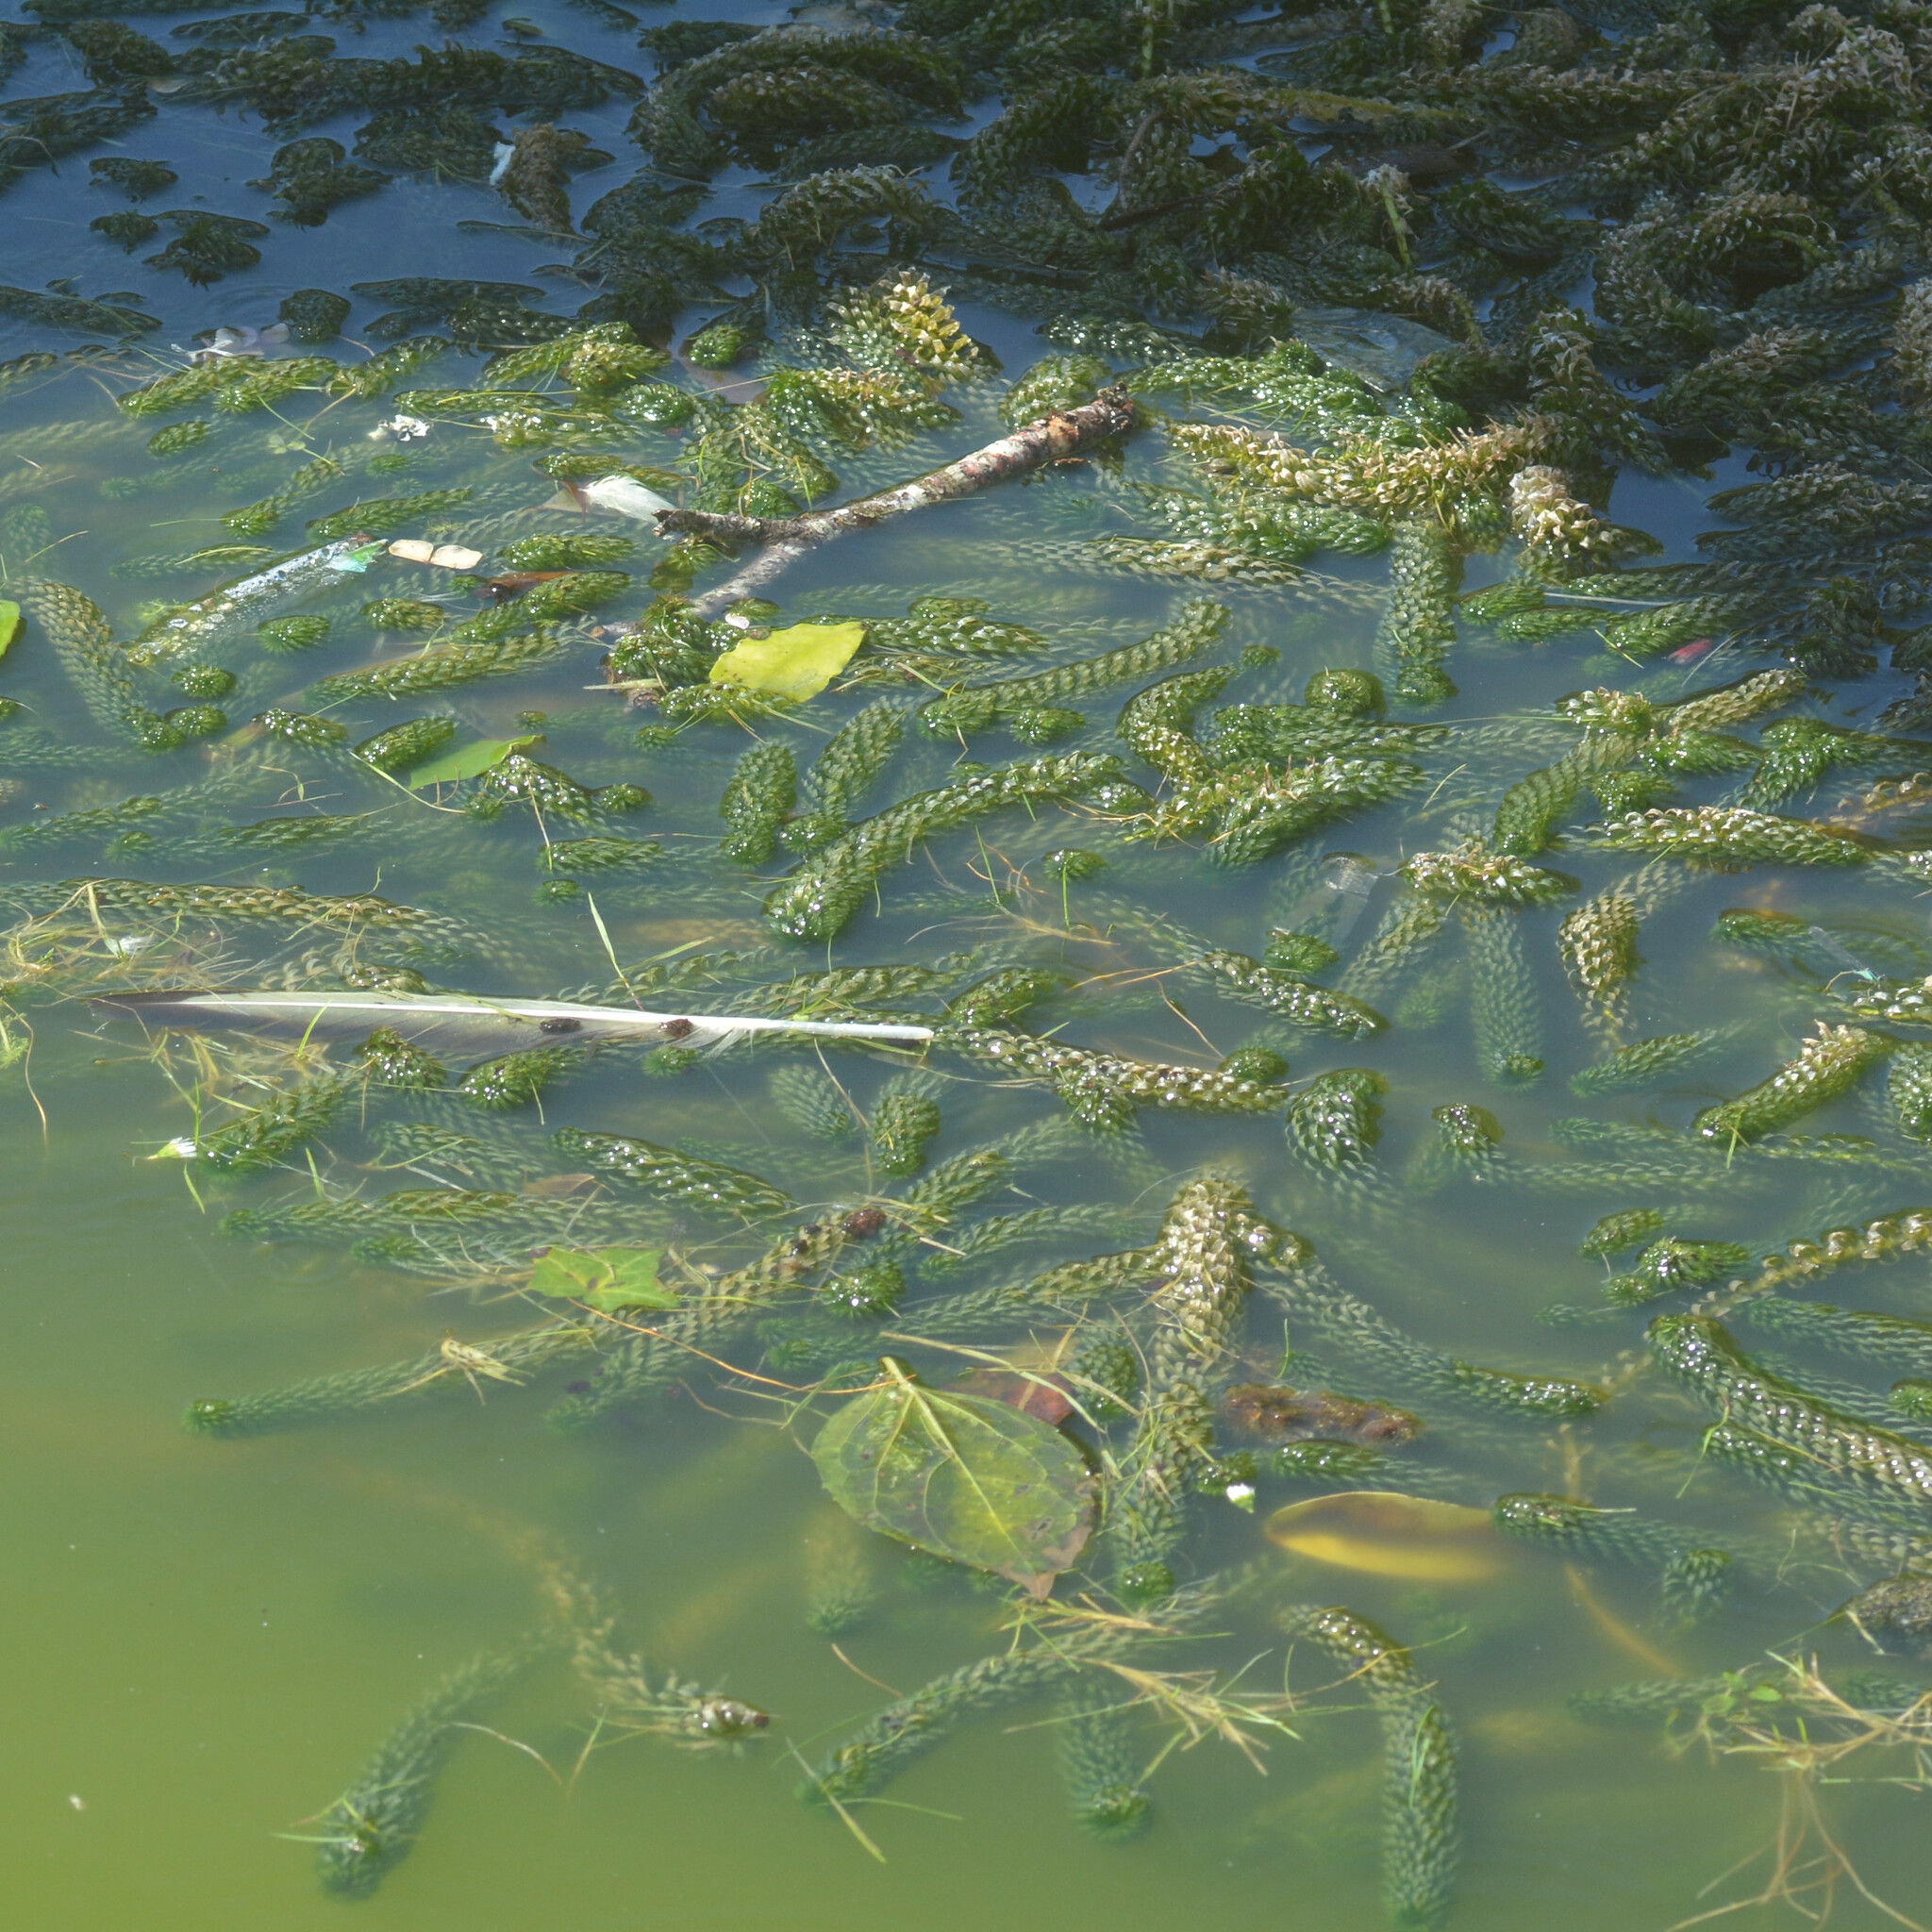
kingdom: Plantae
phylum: Tracheophyta
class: Liliopsida
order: Alismatales
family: Hydrocharitaceae
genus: Lagarosiphon
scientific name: Lagarosiphon major
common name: Curly waterweed
